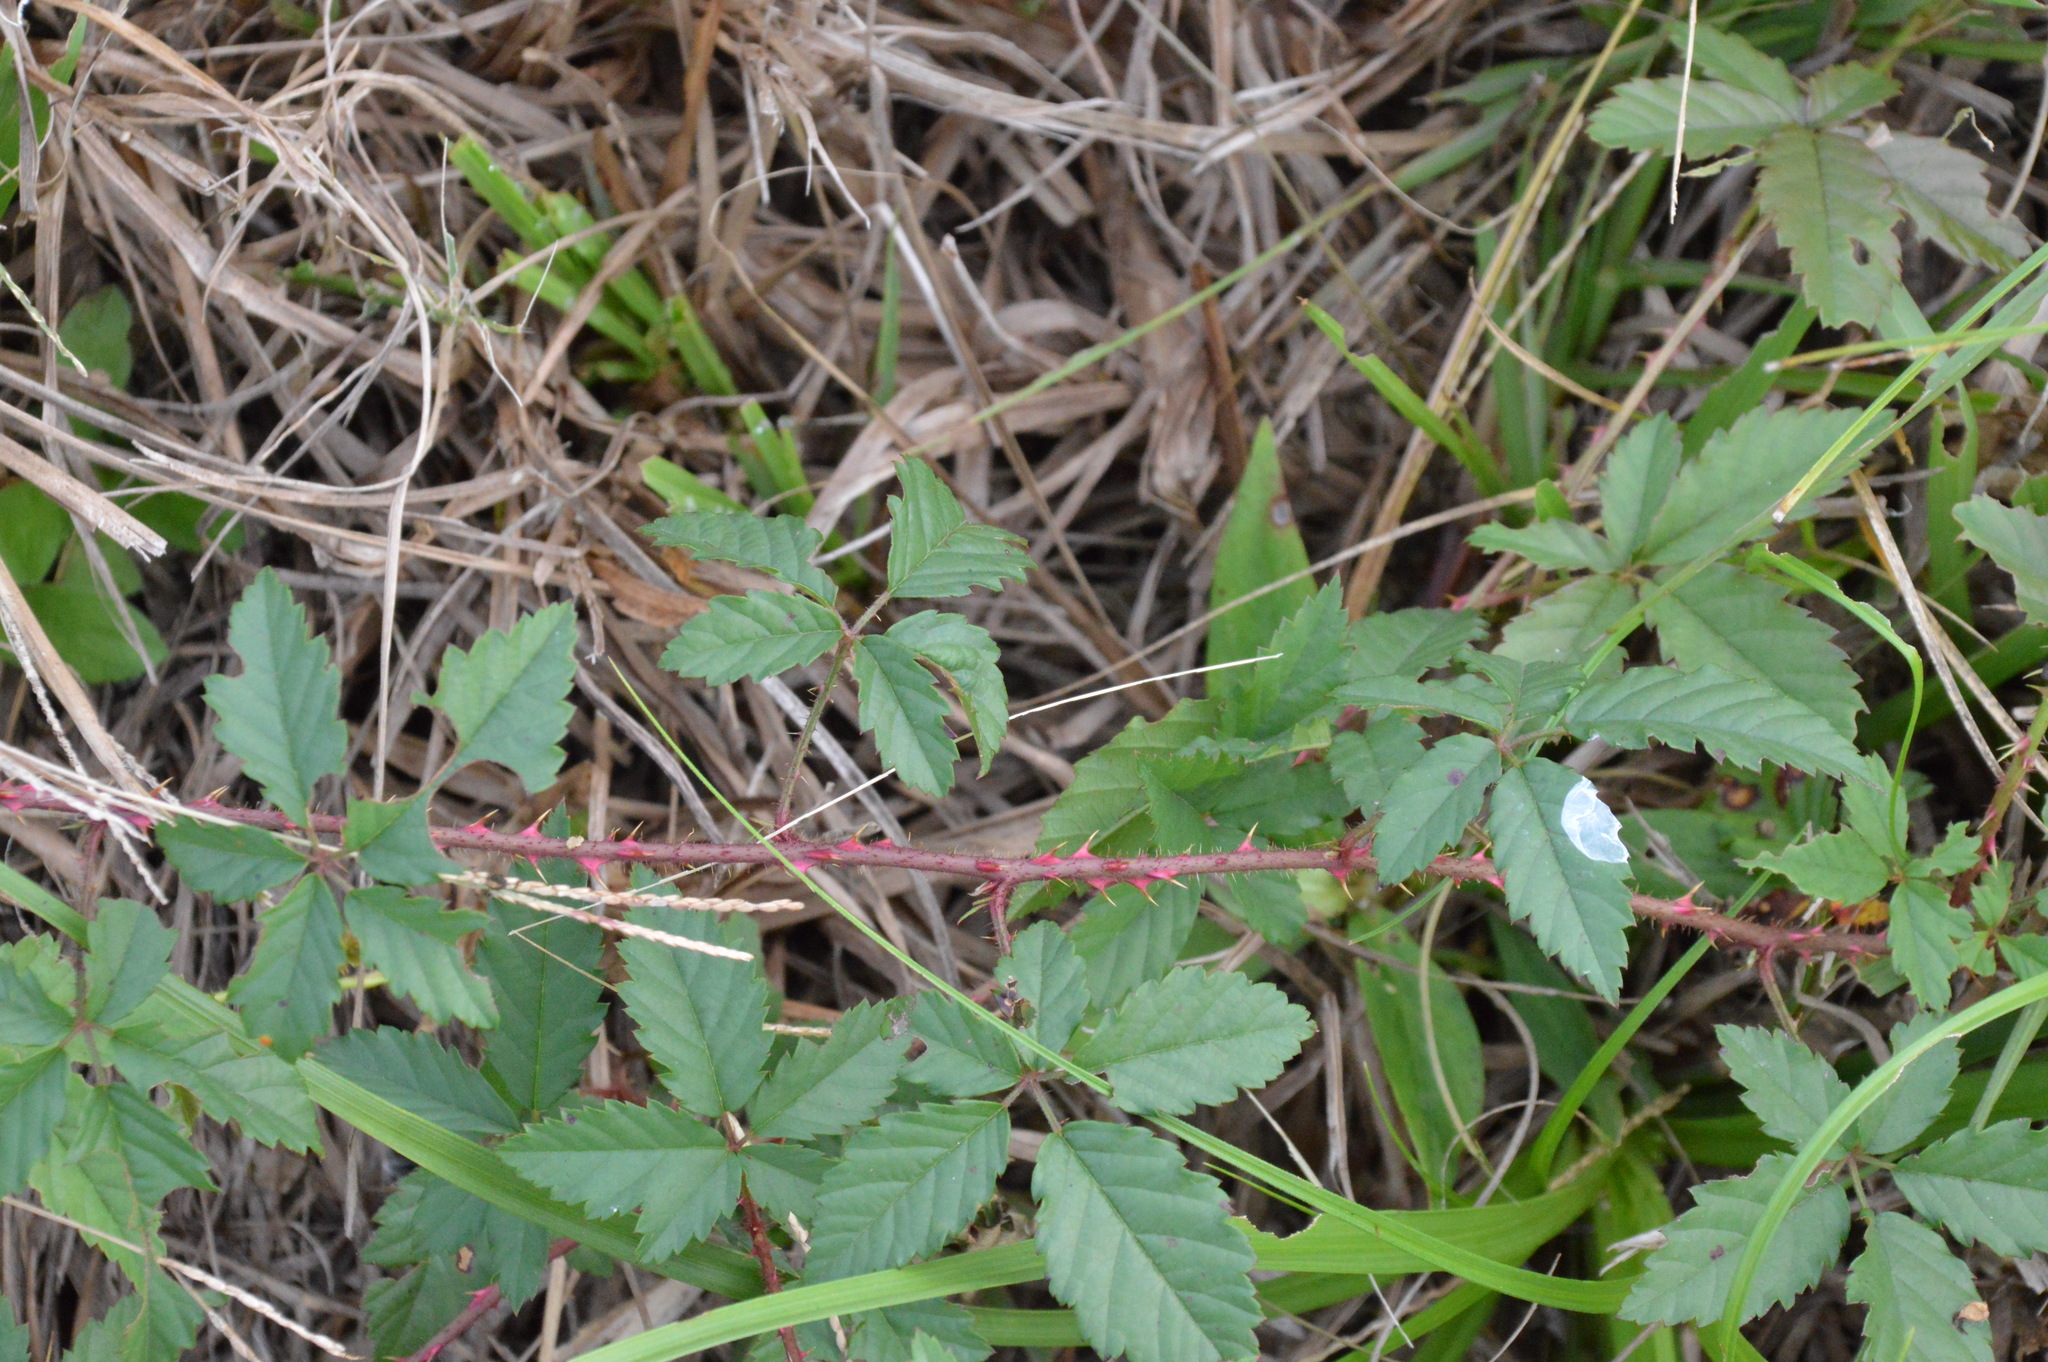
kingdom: Plantae
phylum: Tracheophyta
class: Magnoliopsida
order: Rosales
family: Rosaceae
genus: Rubus
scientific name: Rubus trivialis
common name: Southern dewberry
